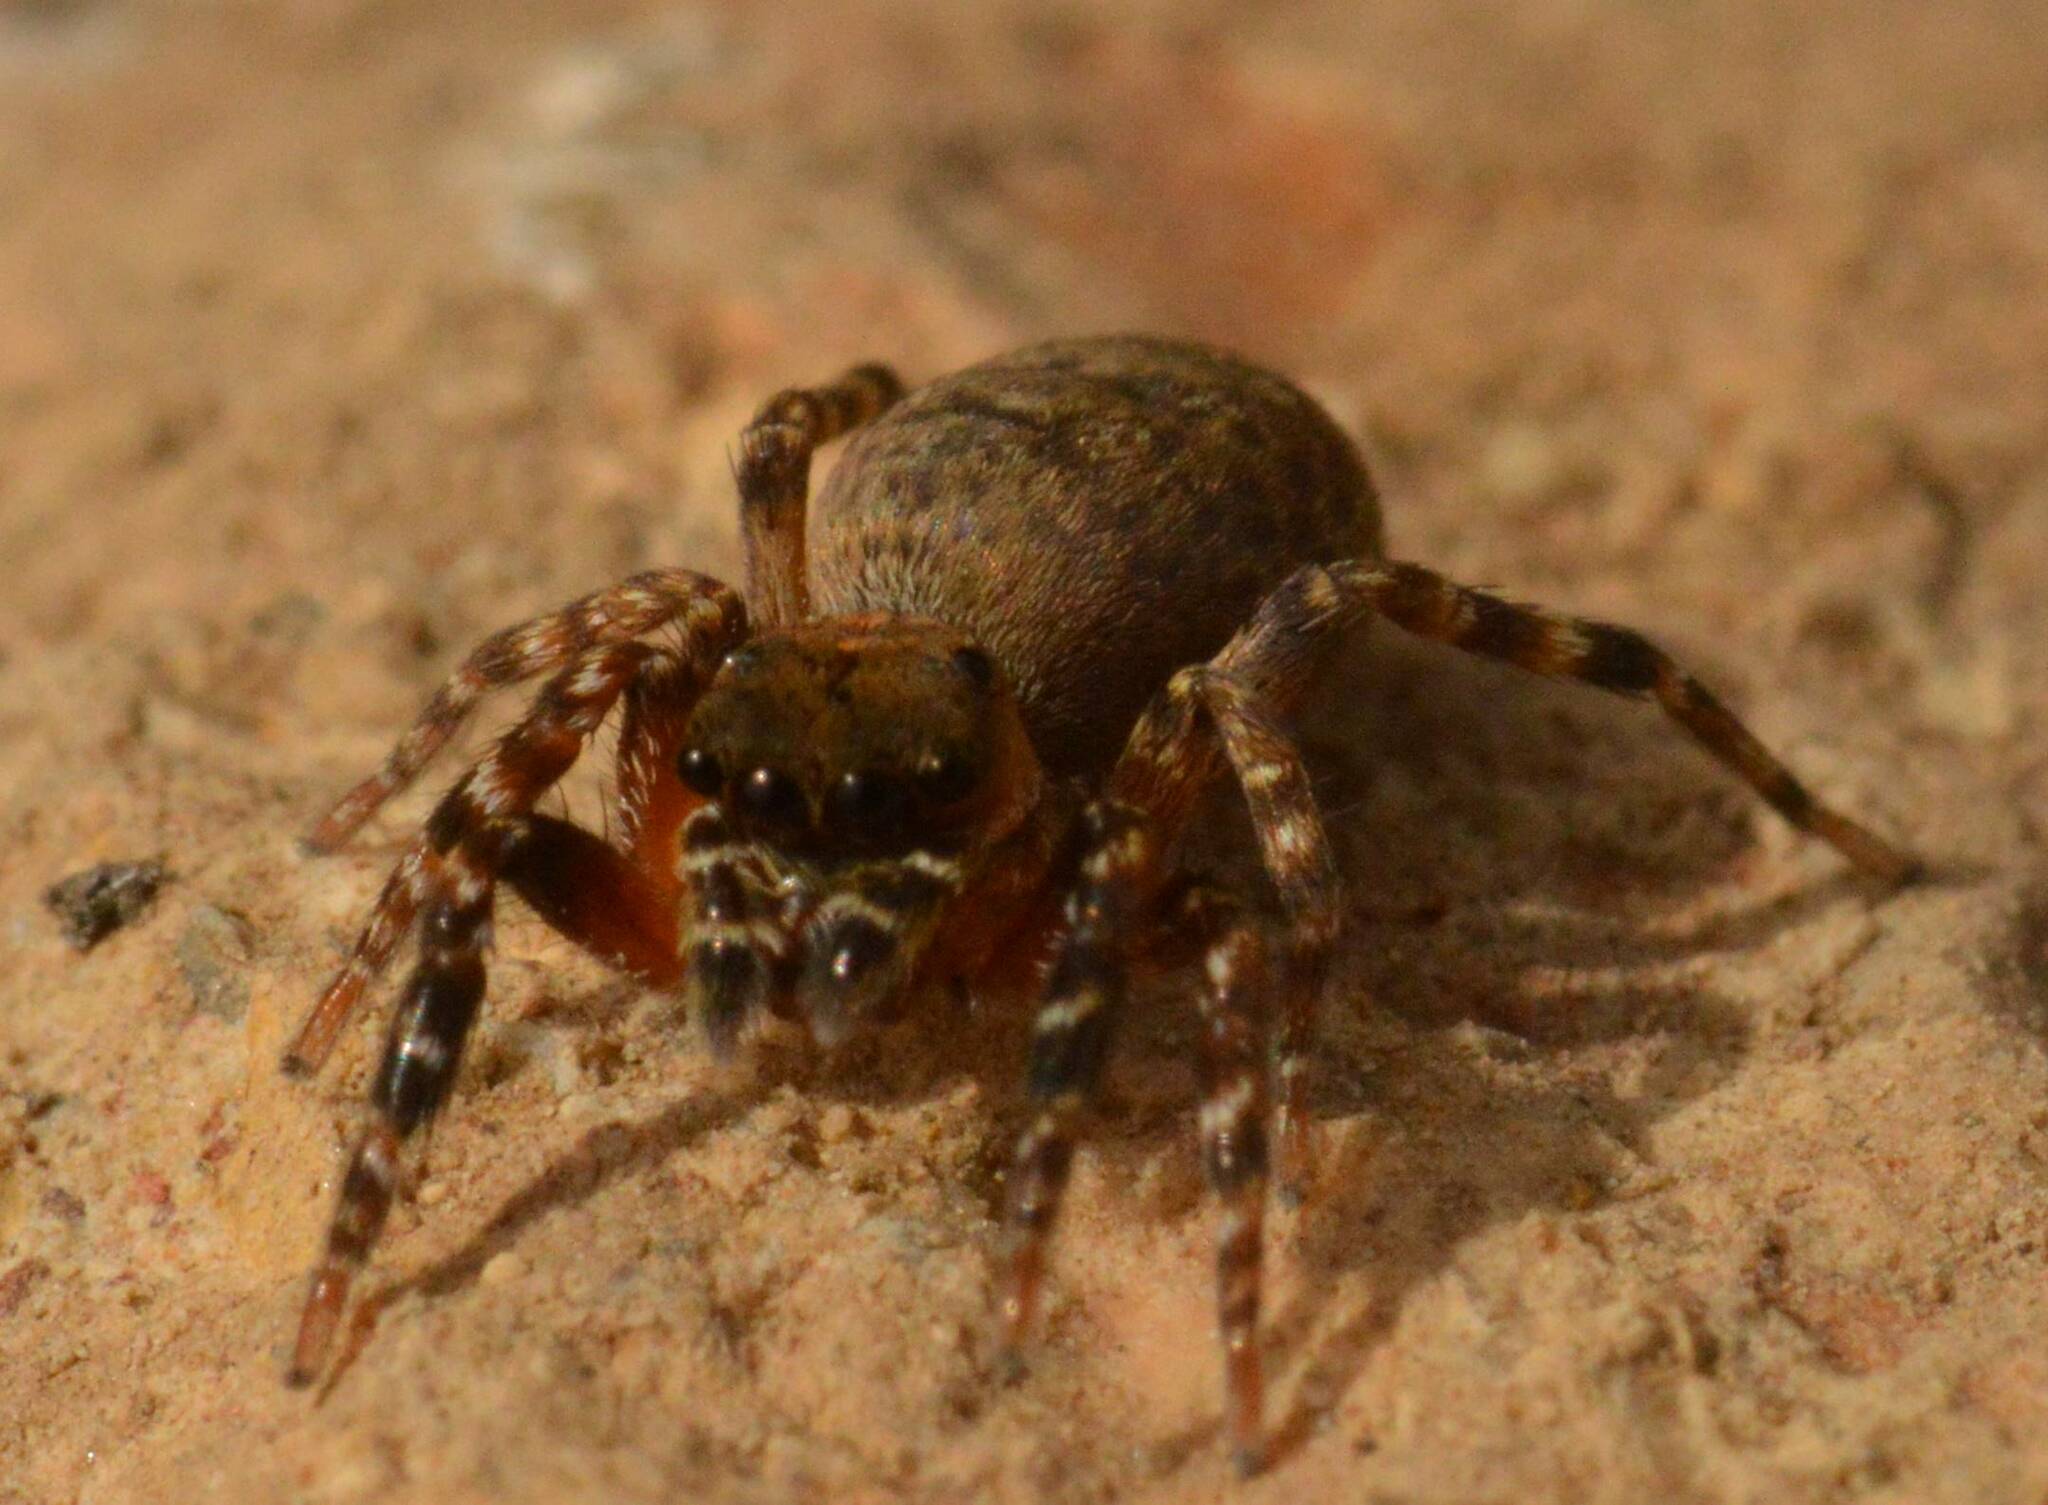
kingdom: Animalia
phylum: Arthropoda
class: Arachnida
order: Araneae
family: Salticidae
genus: Cyrba
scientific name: Cyrba algerina
